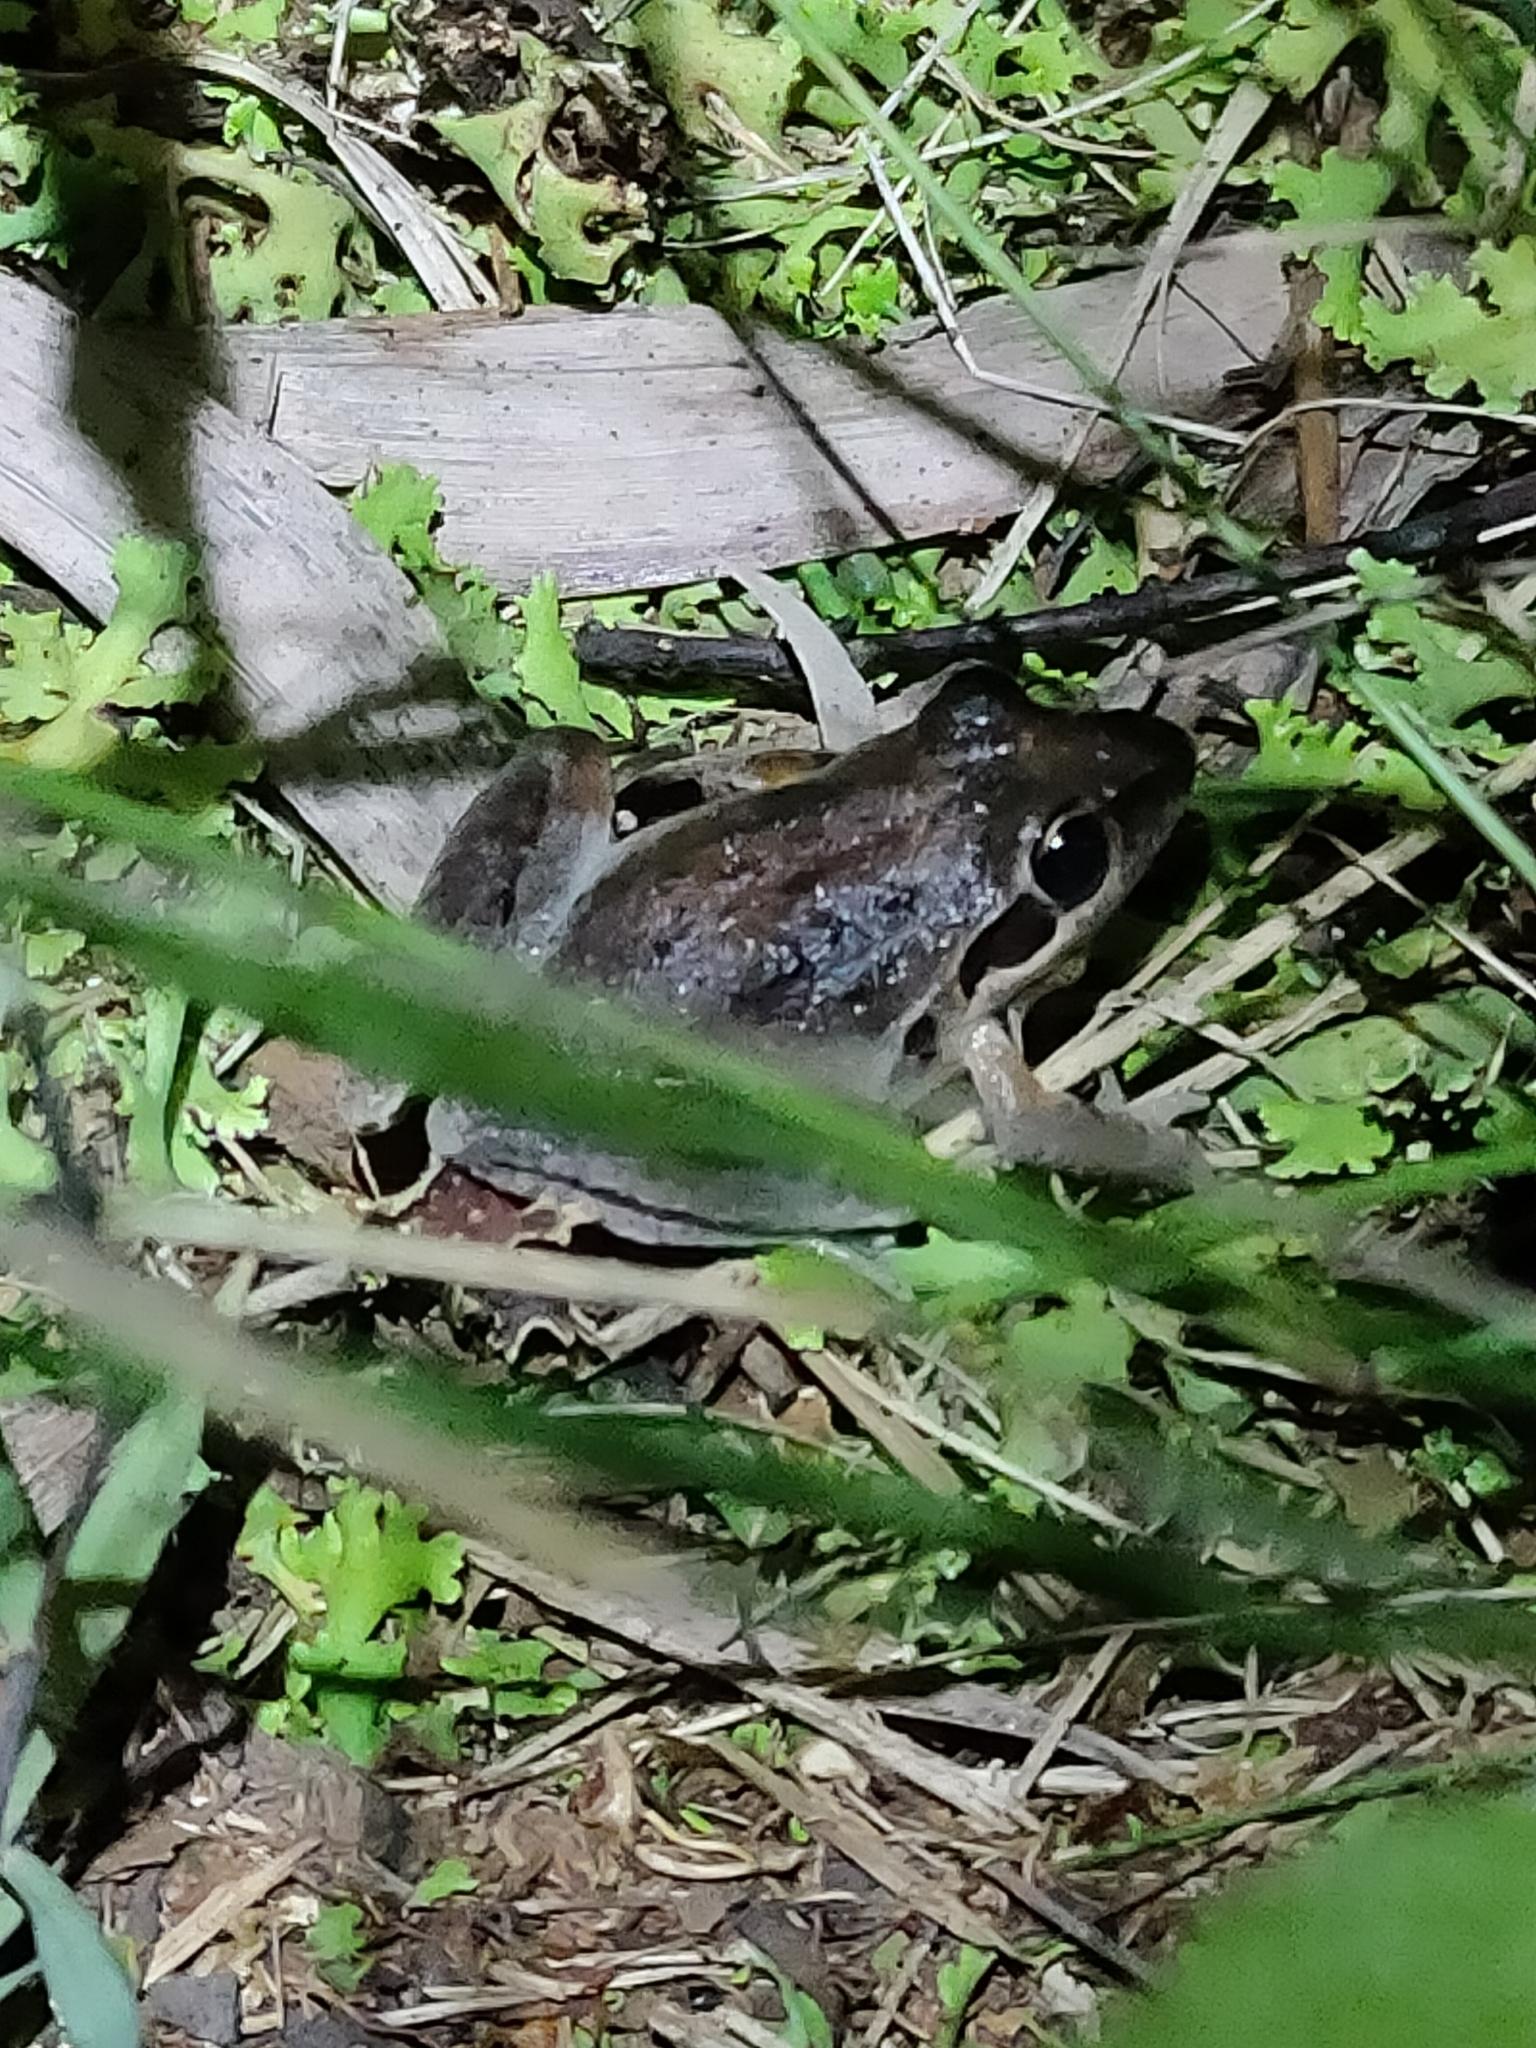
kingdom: Animalia
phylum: Chordata
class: Amphibia
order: Anura
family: Pelodryadidae
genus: Litoria
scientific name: Litoria latopalmata
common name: Broad-palmed rocket frog
